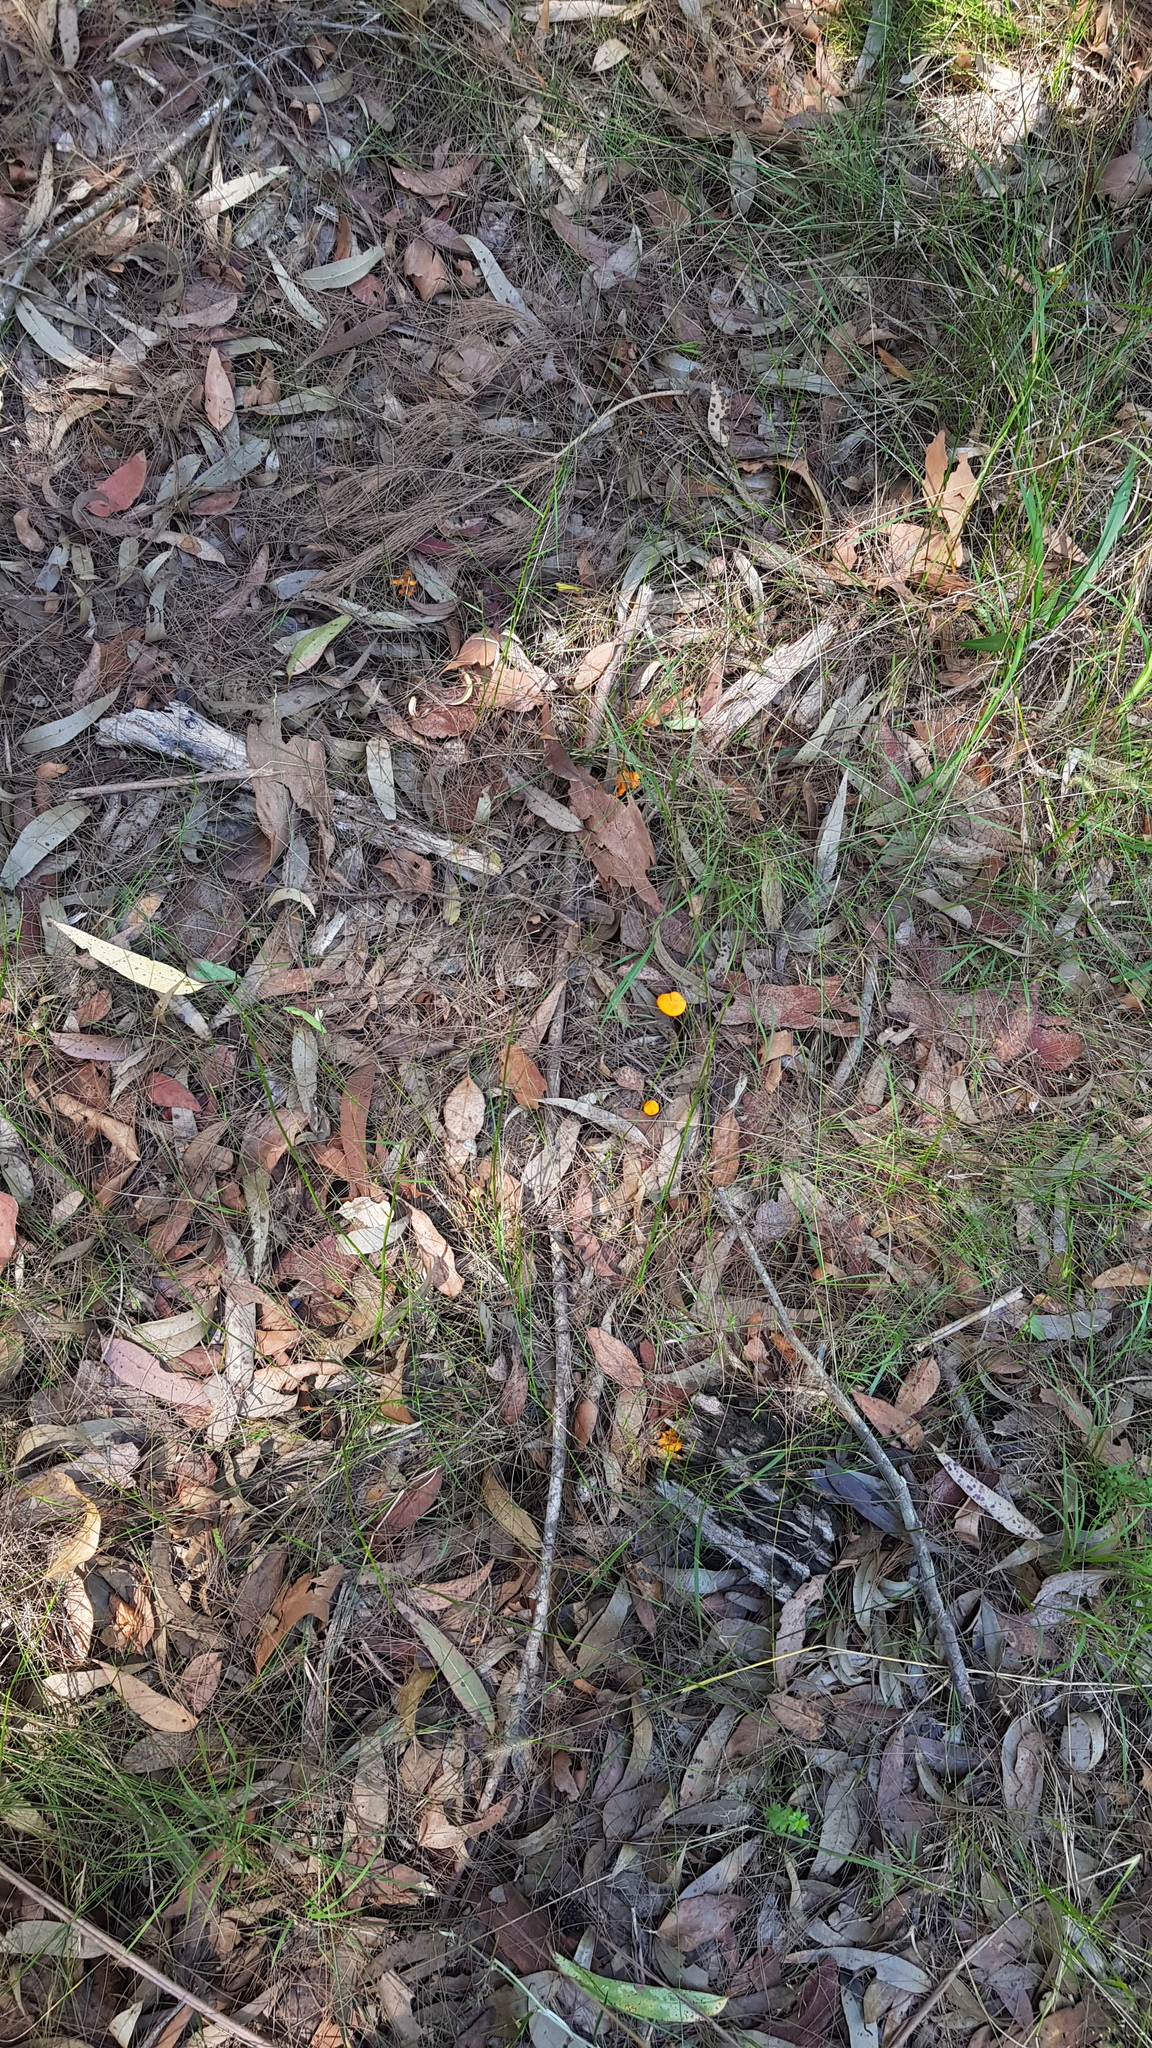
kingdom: Fungi
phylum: Basidiomycota
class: Agaricomycetes
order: Cantharellales
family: Hydnaceae
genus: Cantharellus
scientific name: Cantharellus
